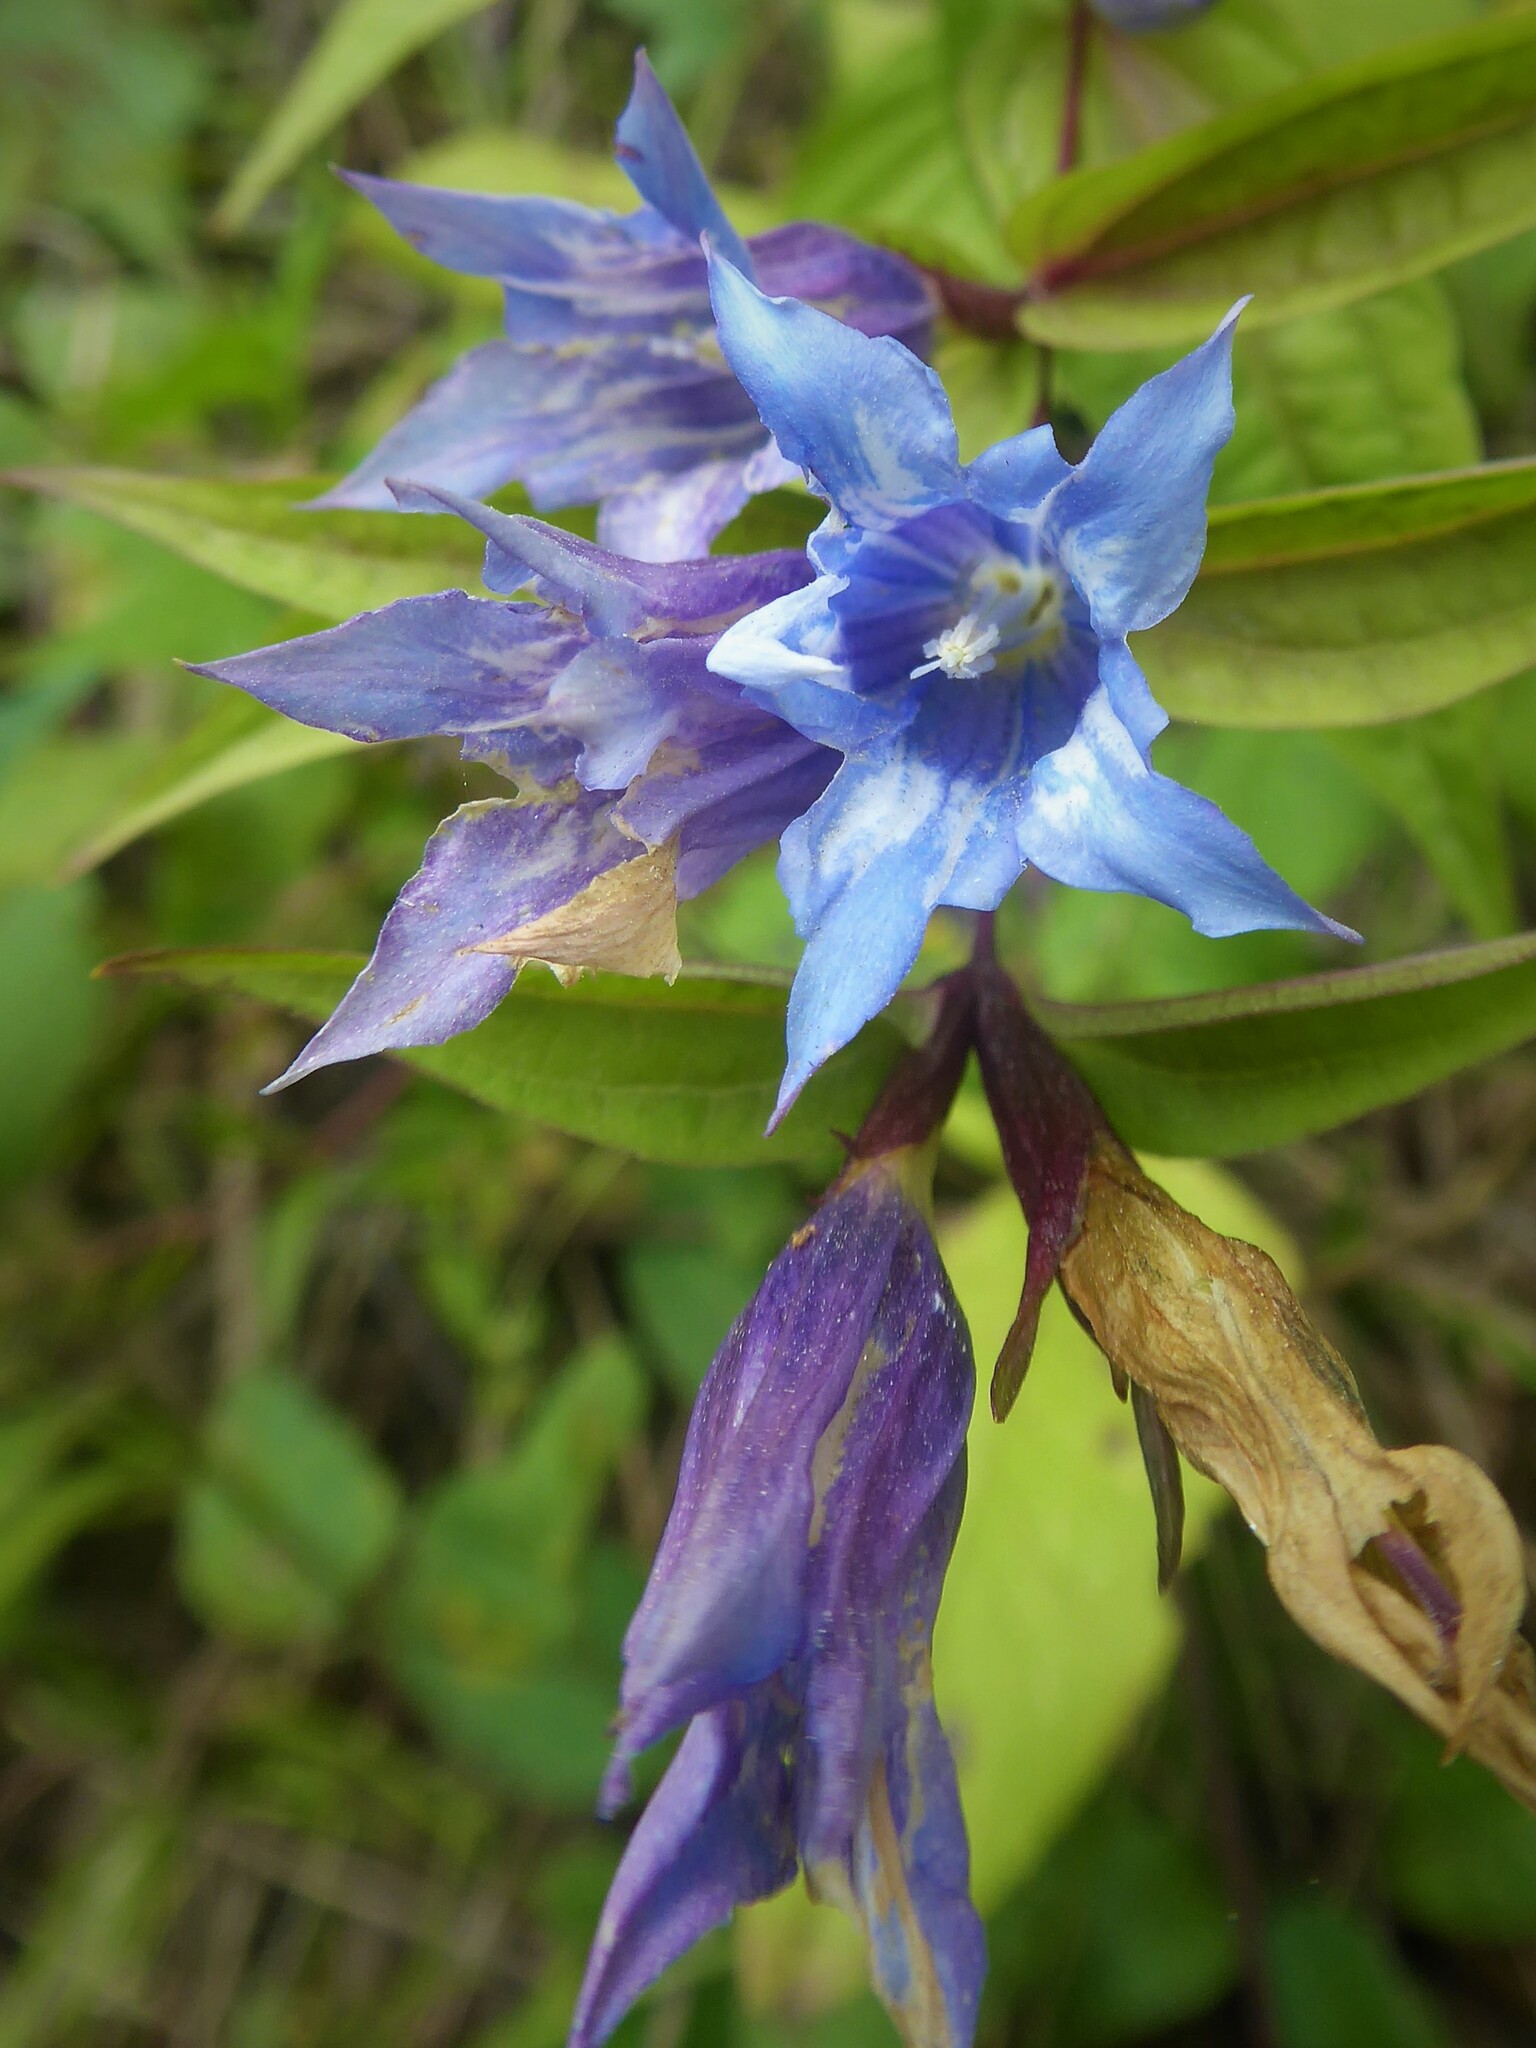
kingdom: Plantae
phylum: Tracheophyta
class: Magnoliopsida
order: Gentianales
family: Gentianaceae
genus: Gentiana
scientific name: Gentiana asclepiadea
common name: Willow gentian
